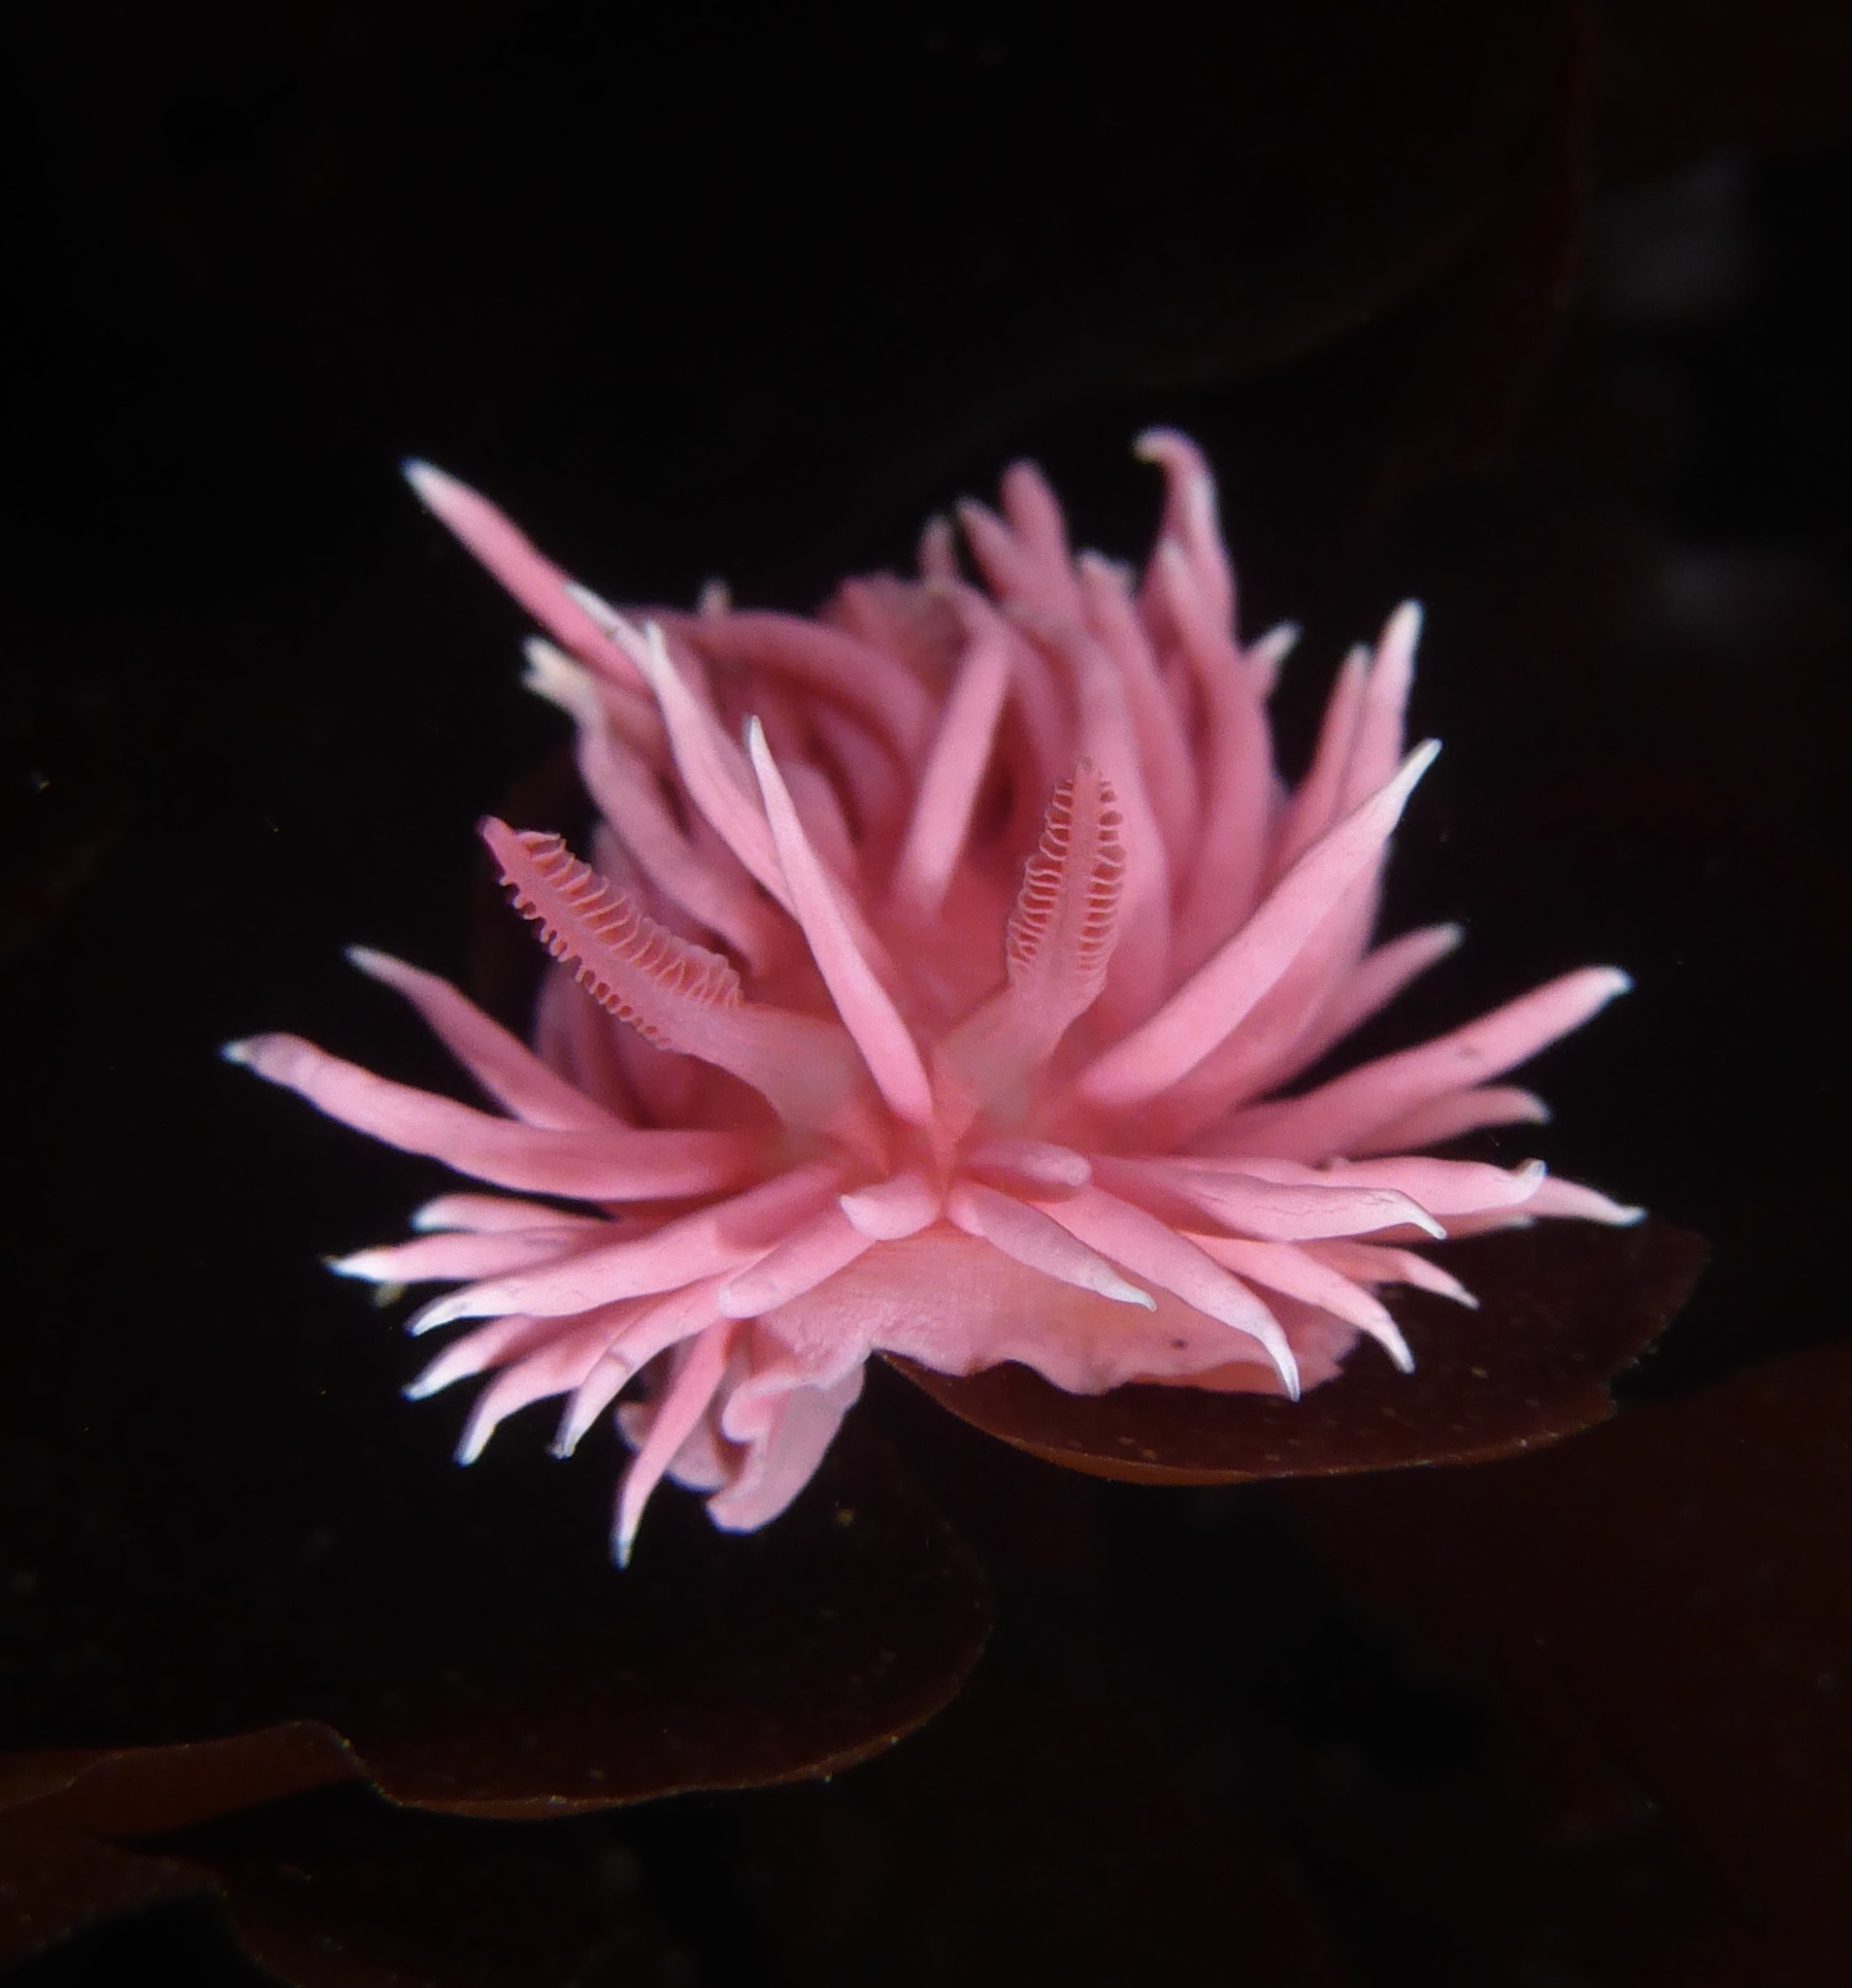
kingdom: Animalia
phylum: Mollusca
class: Gastropoda
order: Nudibranchia
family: Goniodorididae
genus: Okenia
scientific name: Okenia
